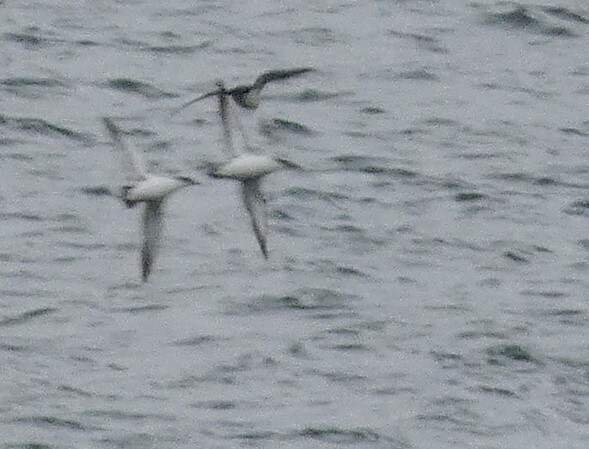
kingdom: Animalia
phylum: Chordata
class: Aves
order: Procellariiformes
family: Procellariidae
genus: Puffinus
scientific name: Puffinus puffinus
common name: Manx shearwater
